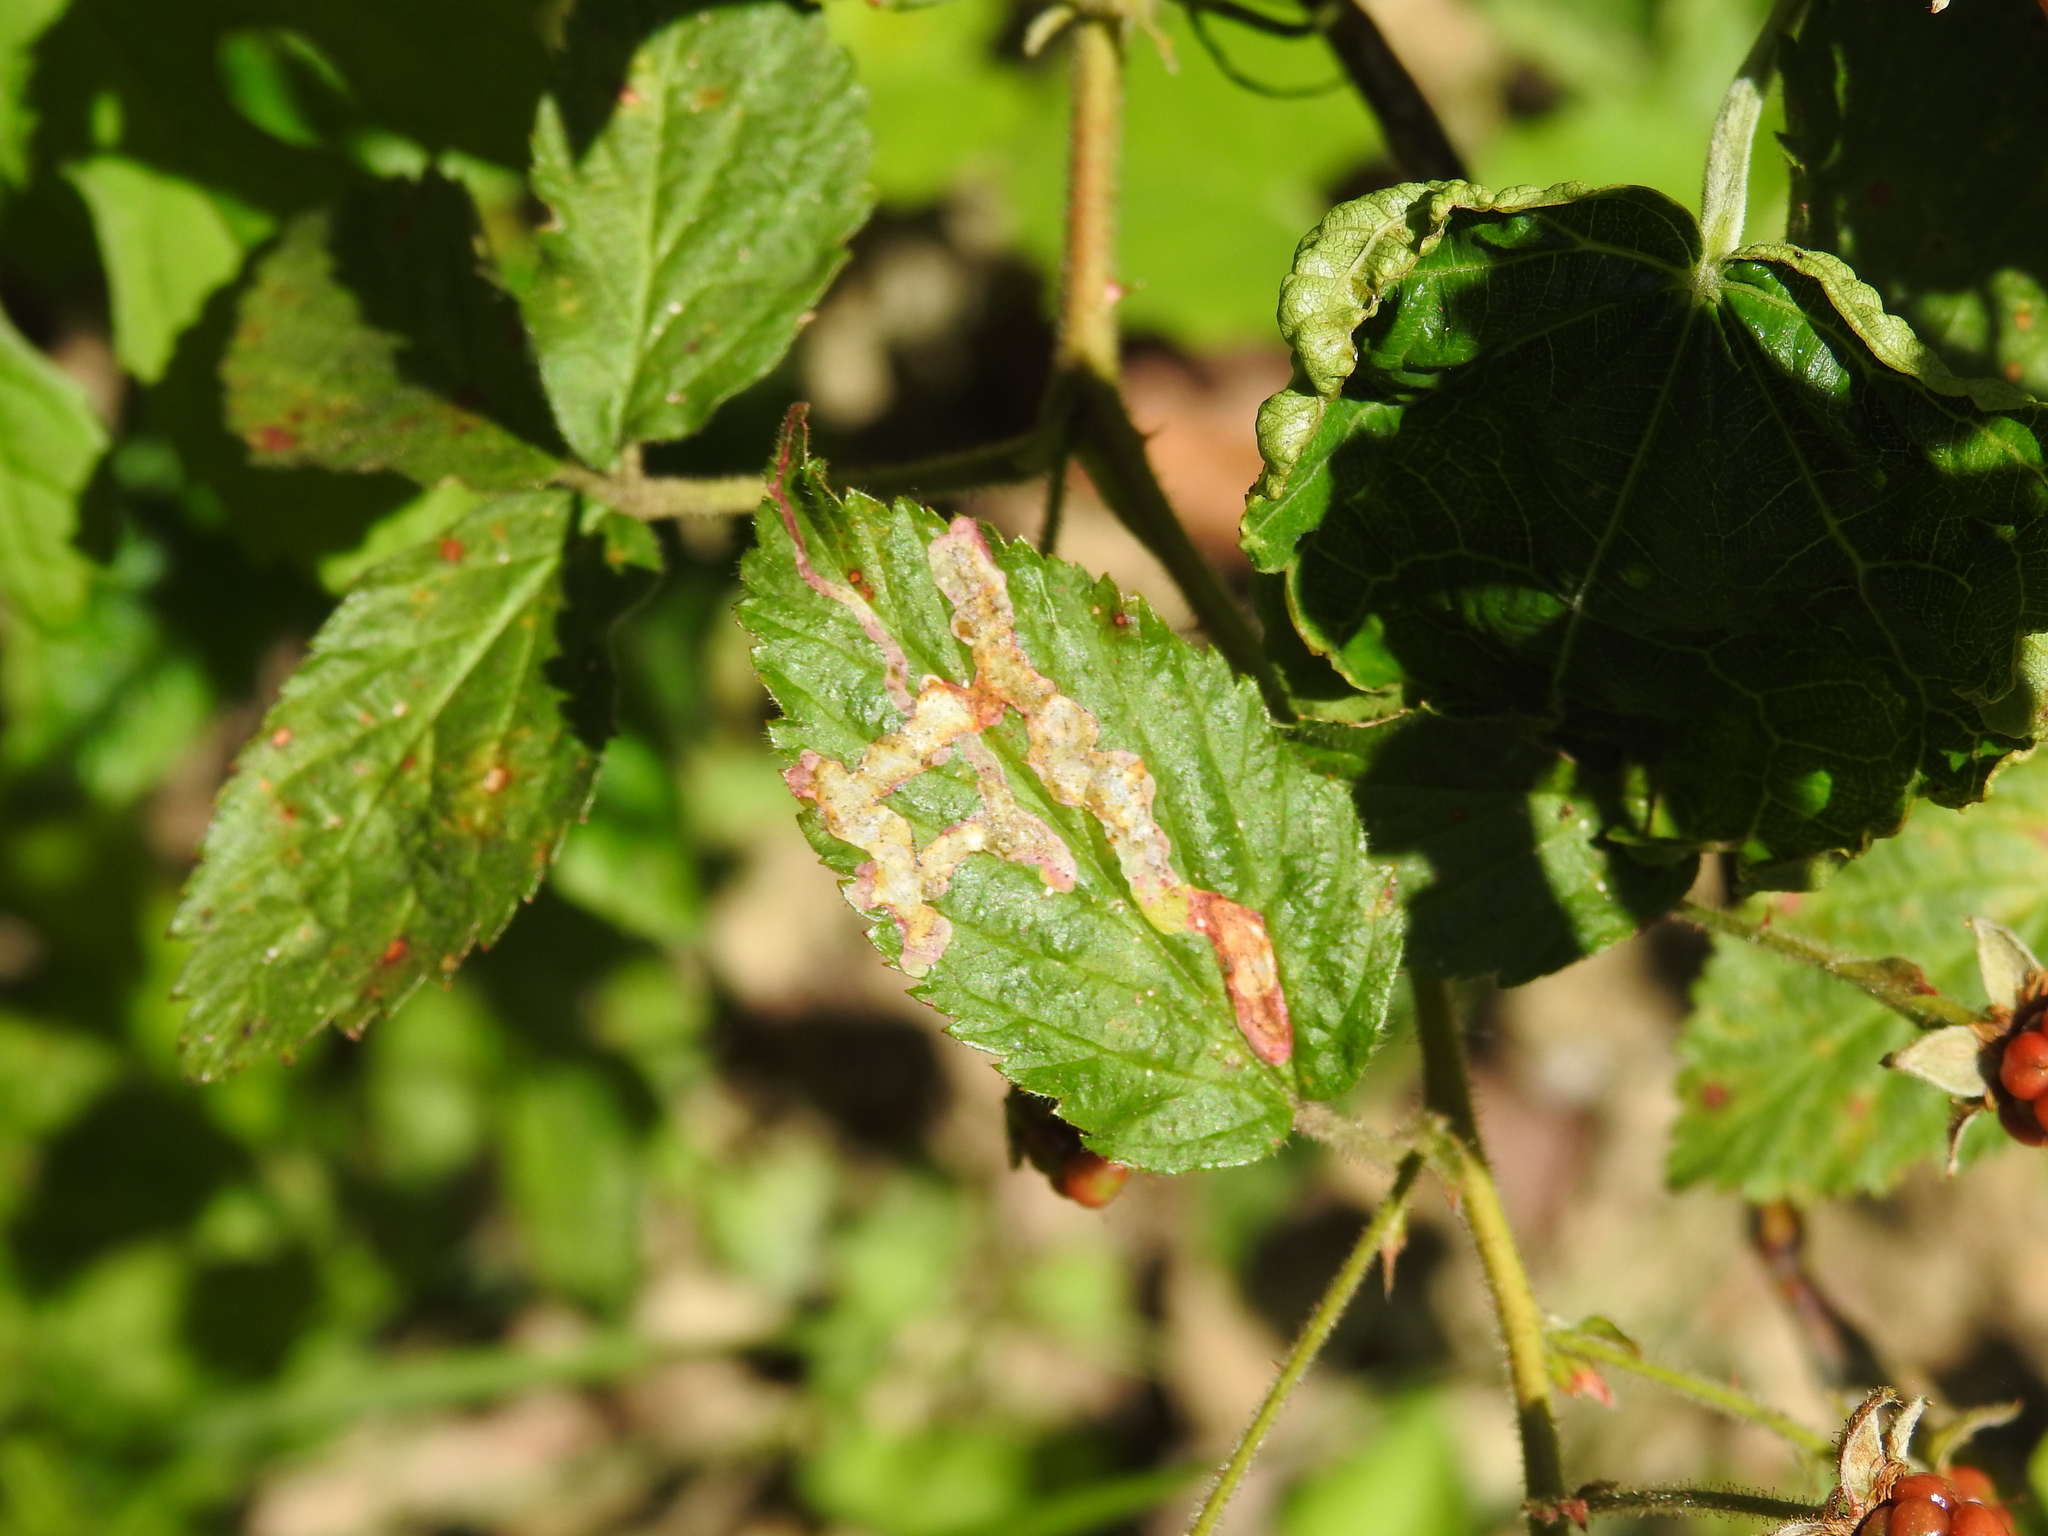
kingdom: Animalia
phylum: Arthropoda
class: Insecta
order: Diptera
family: Agromyzidae
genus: Agromyza
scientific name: Agromyza vockerothi
